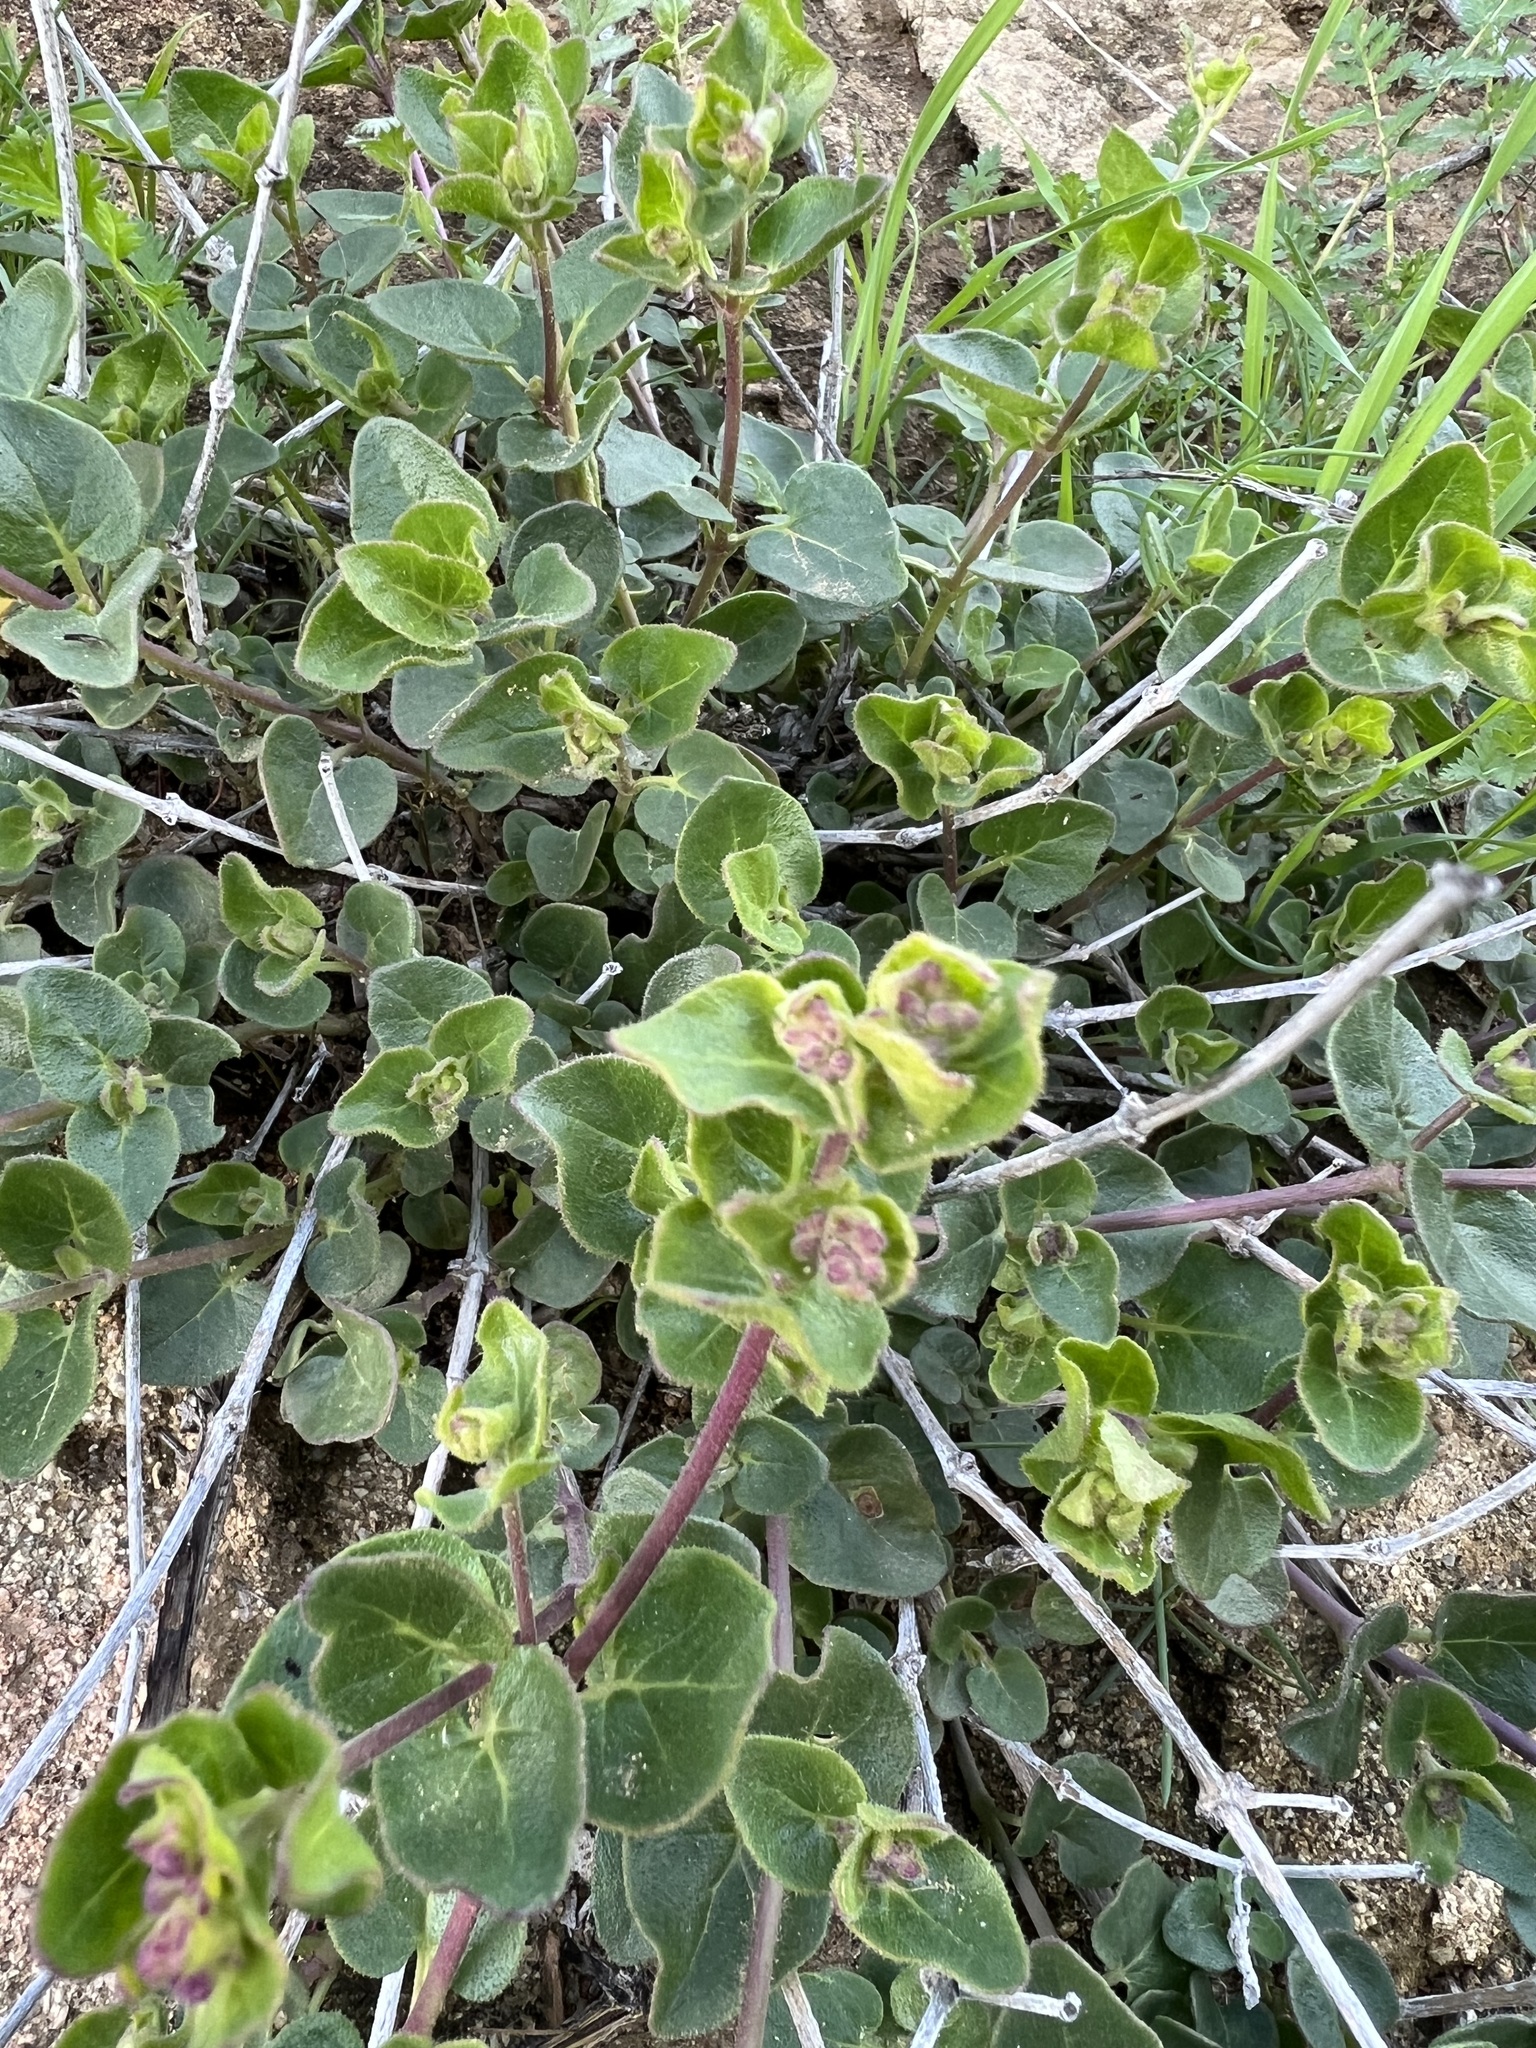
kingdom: Plantae
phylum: Tracheophyta
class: Magnoliopsida
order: Caryophyllales
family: Nyctaginaceae
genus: Mirabilis
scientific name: Mirabilis laevis
